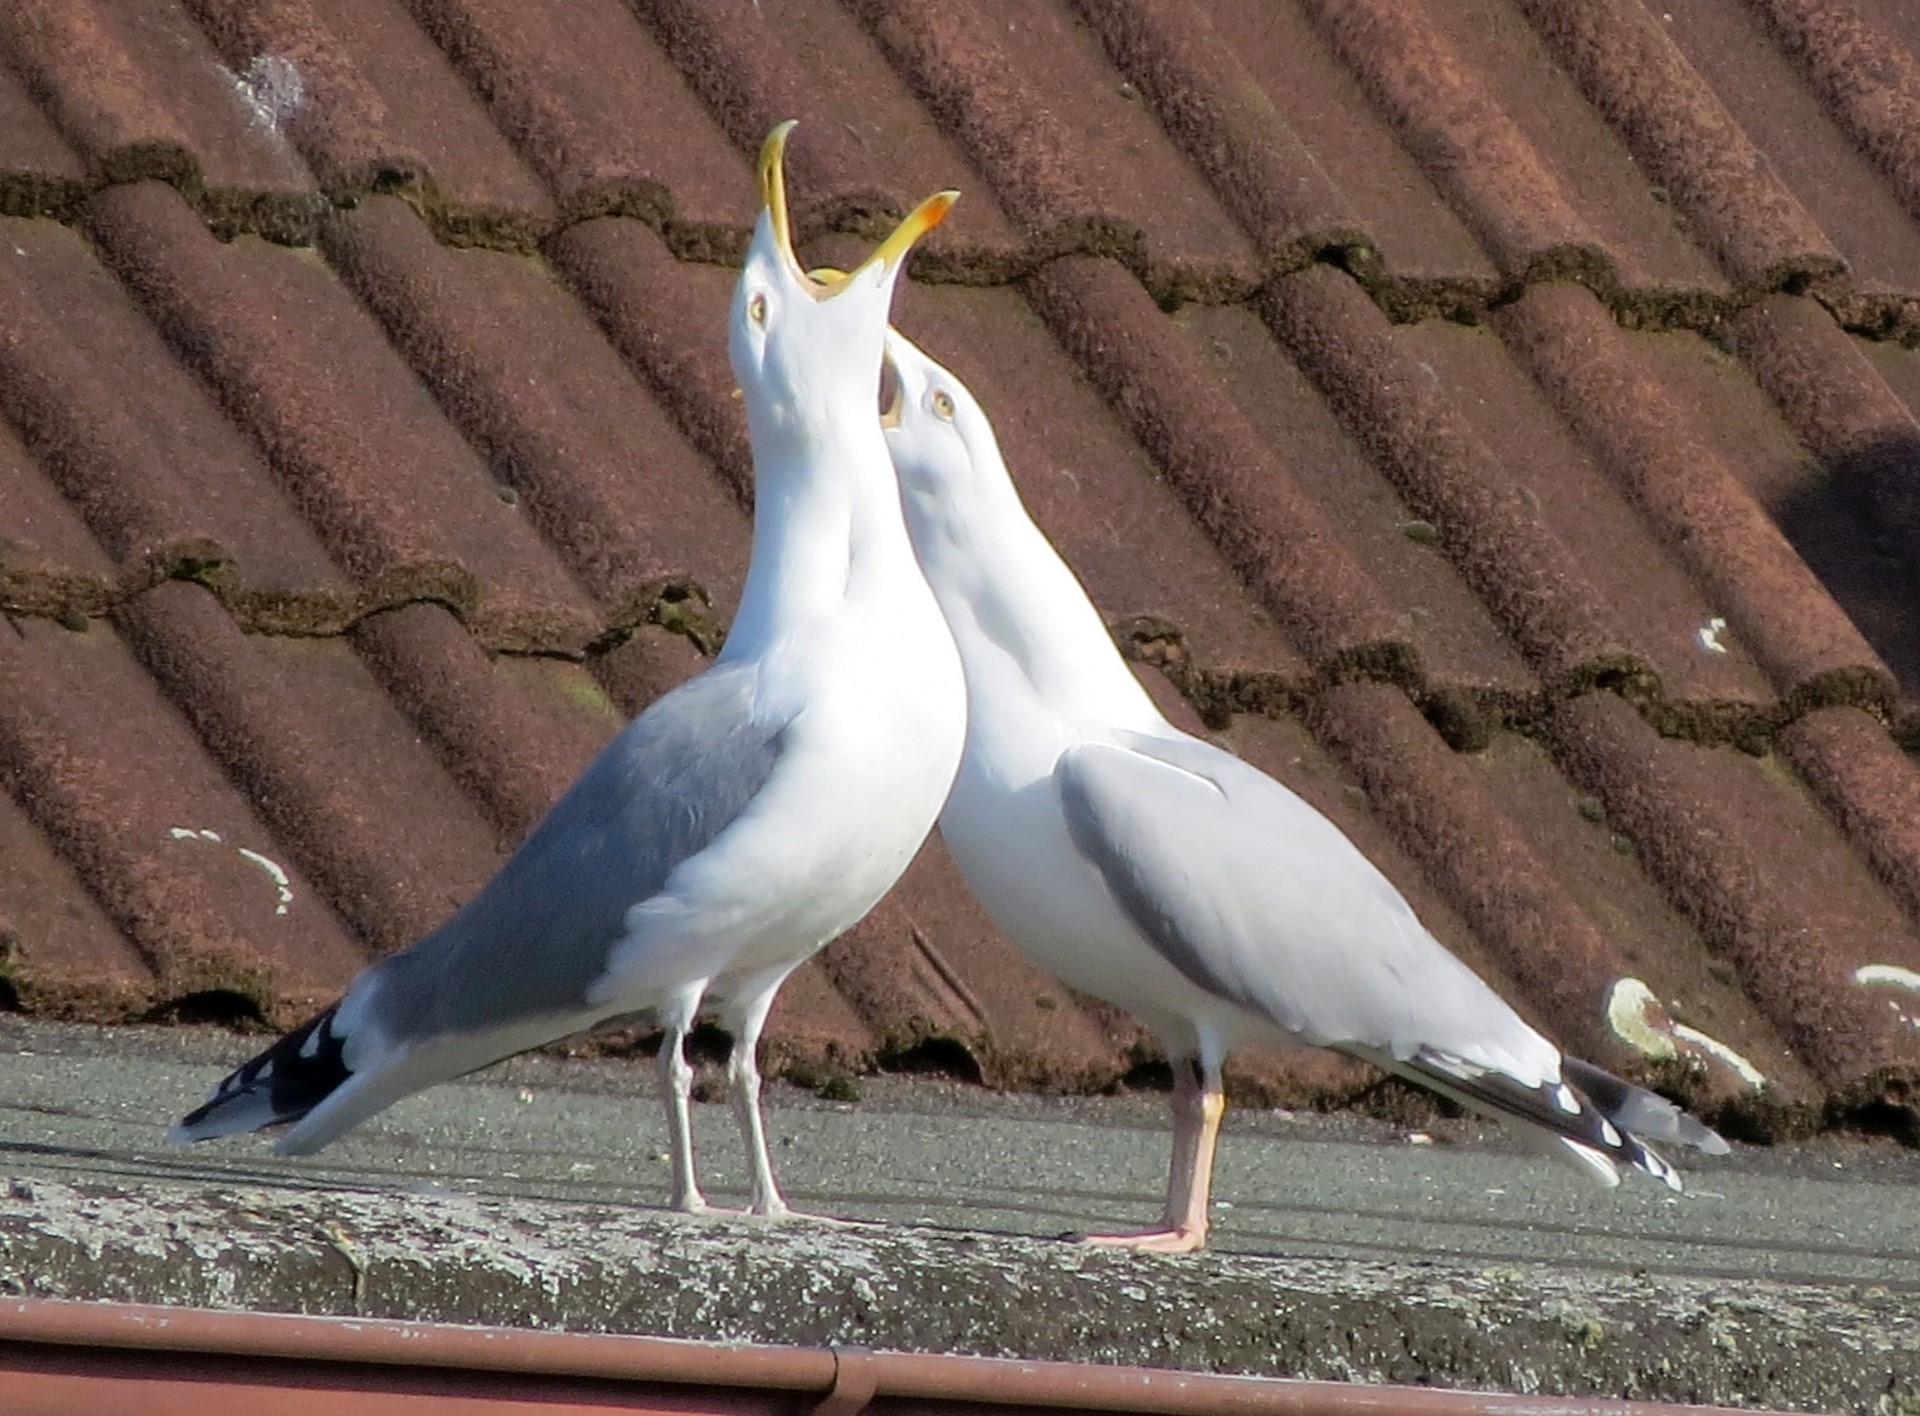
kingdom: Animalia
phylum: Chordata
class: Aves
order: Charadriiformes
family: Laridae
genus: Larus
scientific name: Larus argentatus
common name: Herring gull
